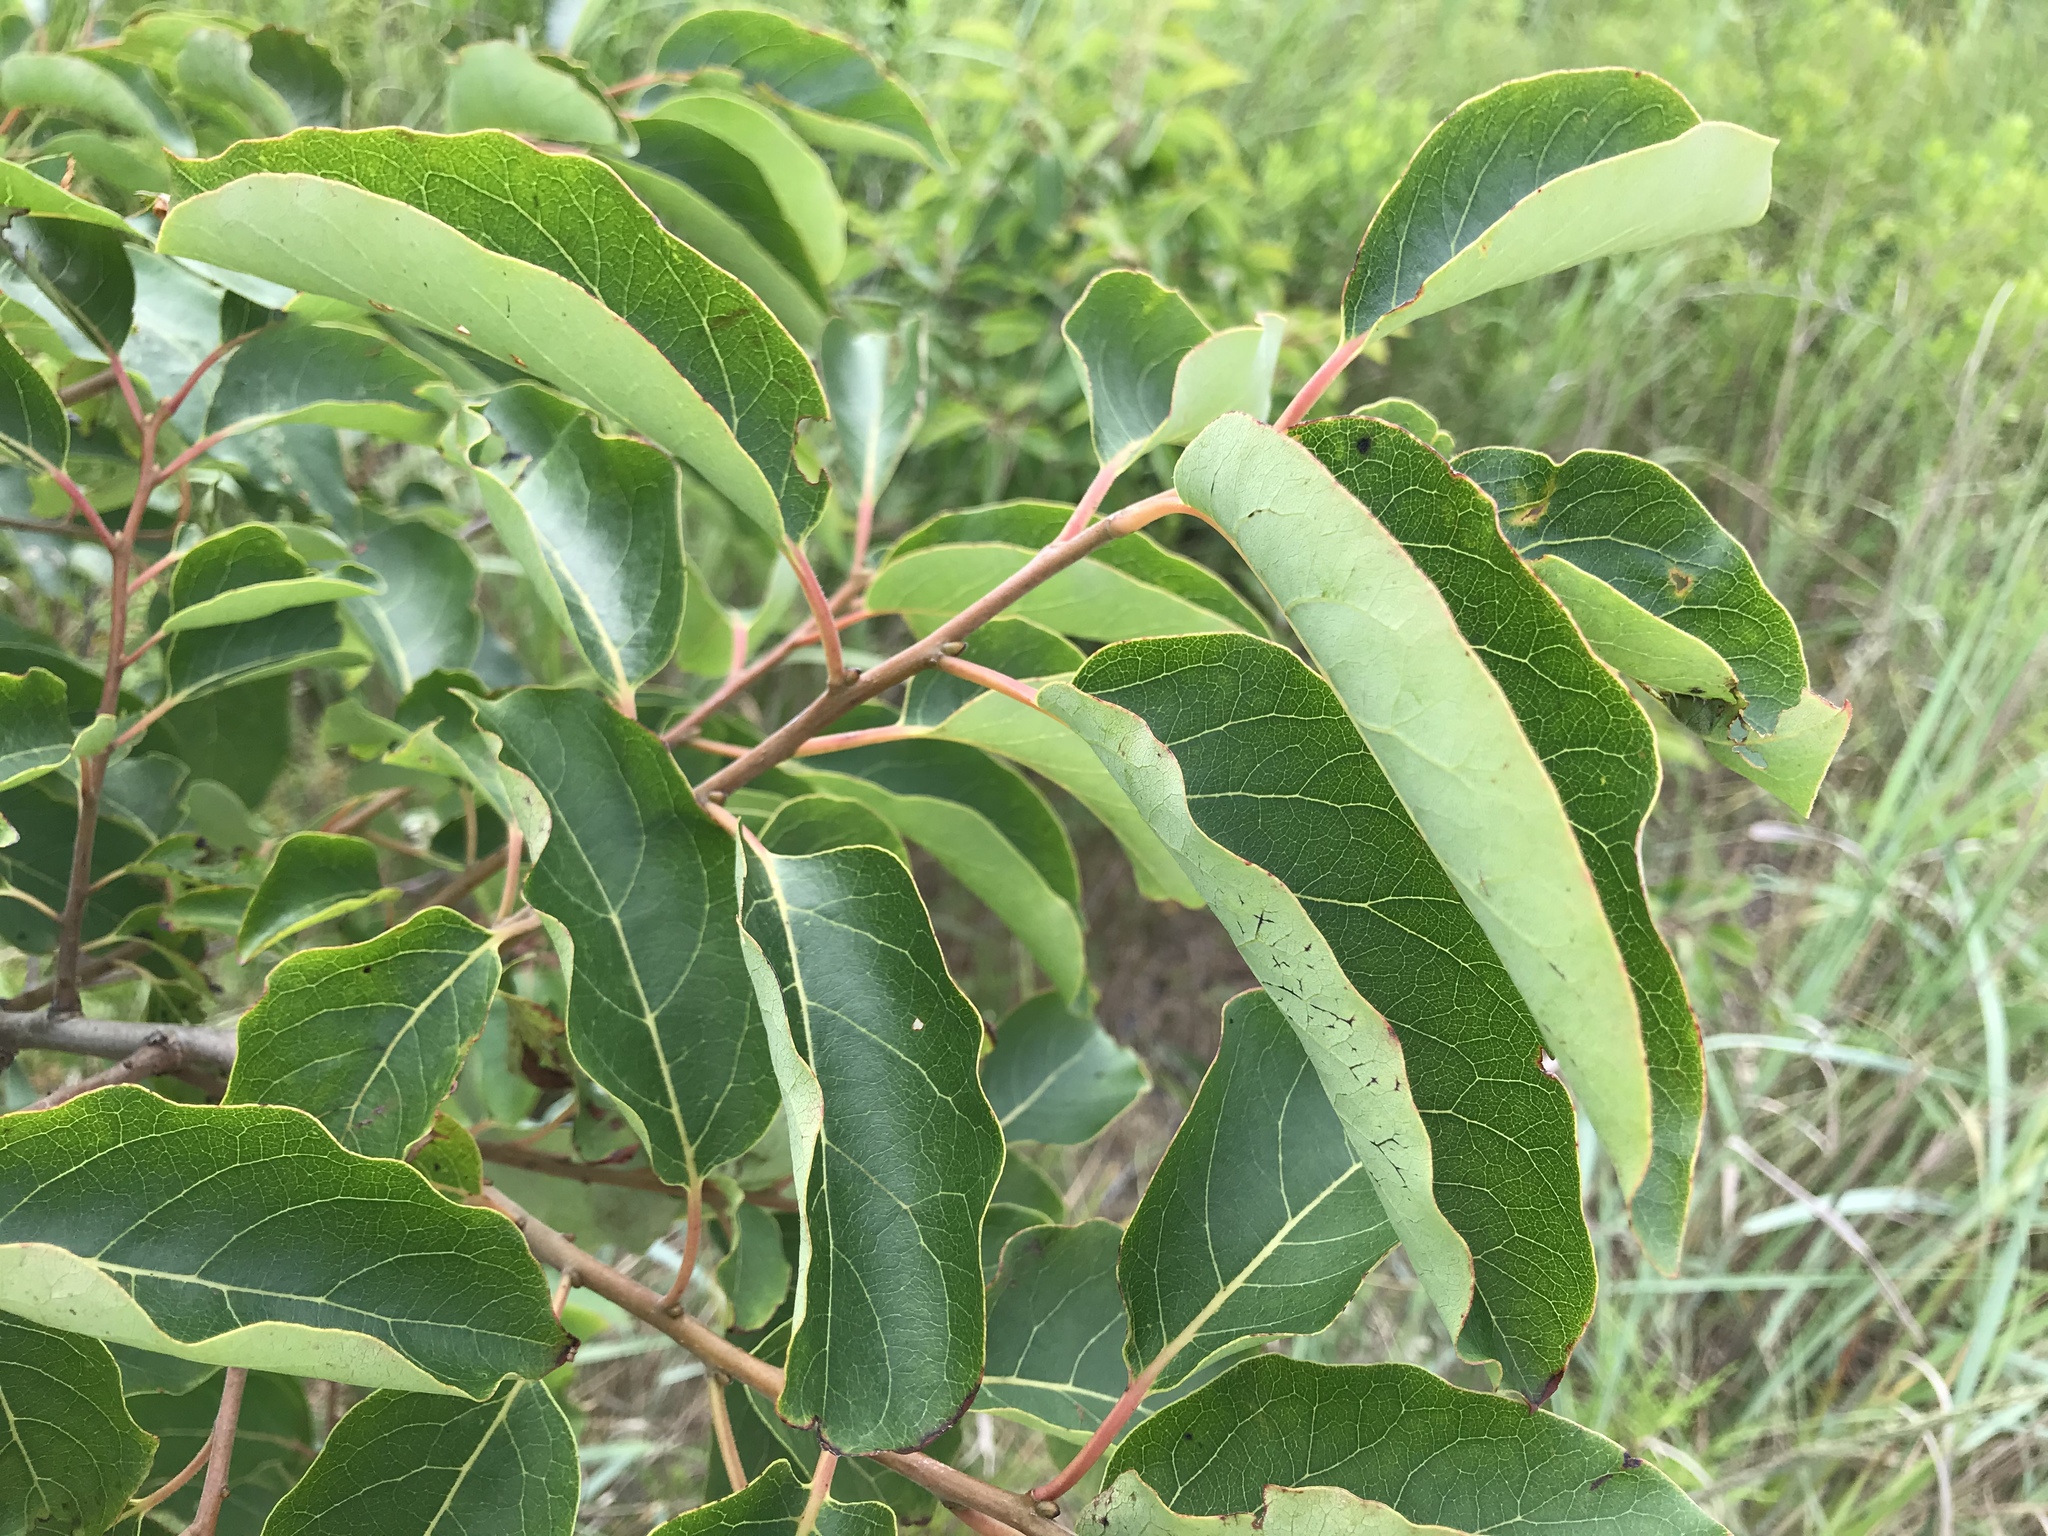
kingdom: Plantae
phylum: Tracheophyta
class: Magnoliopsida
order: Ericales
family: Ebenaceae
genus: Diospyros
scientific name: Diospyros virginiana
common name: Persimmon
